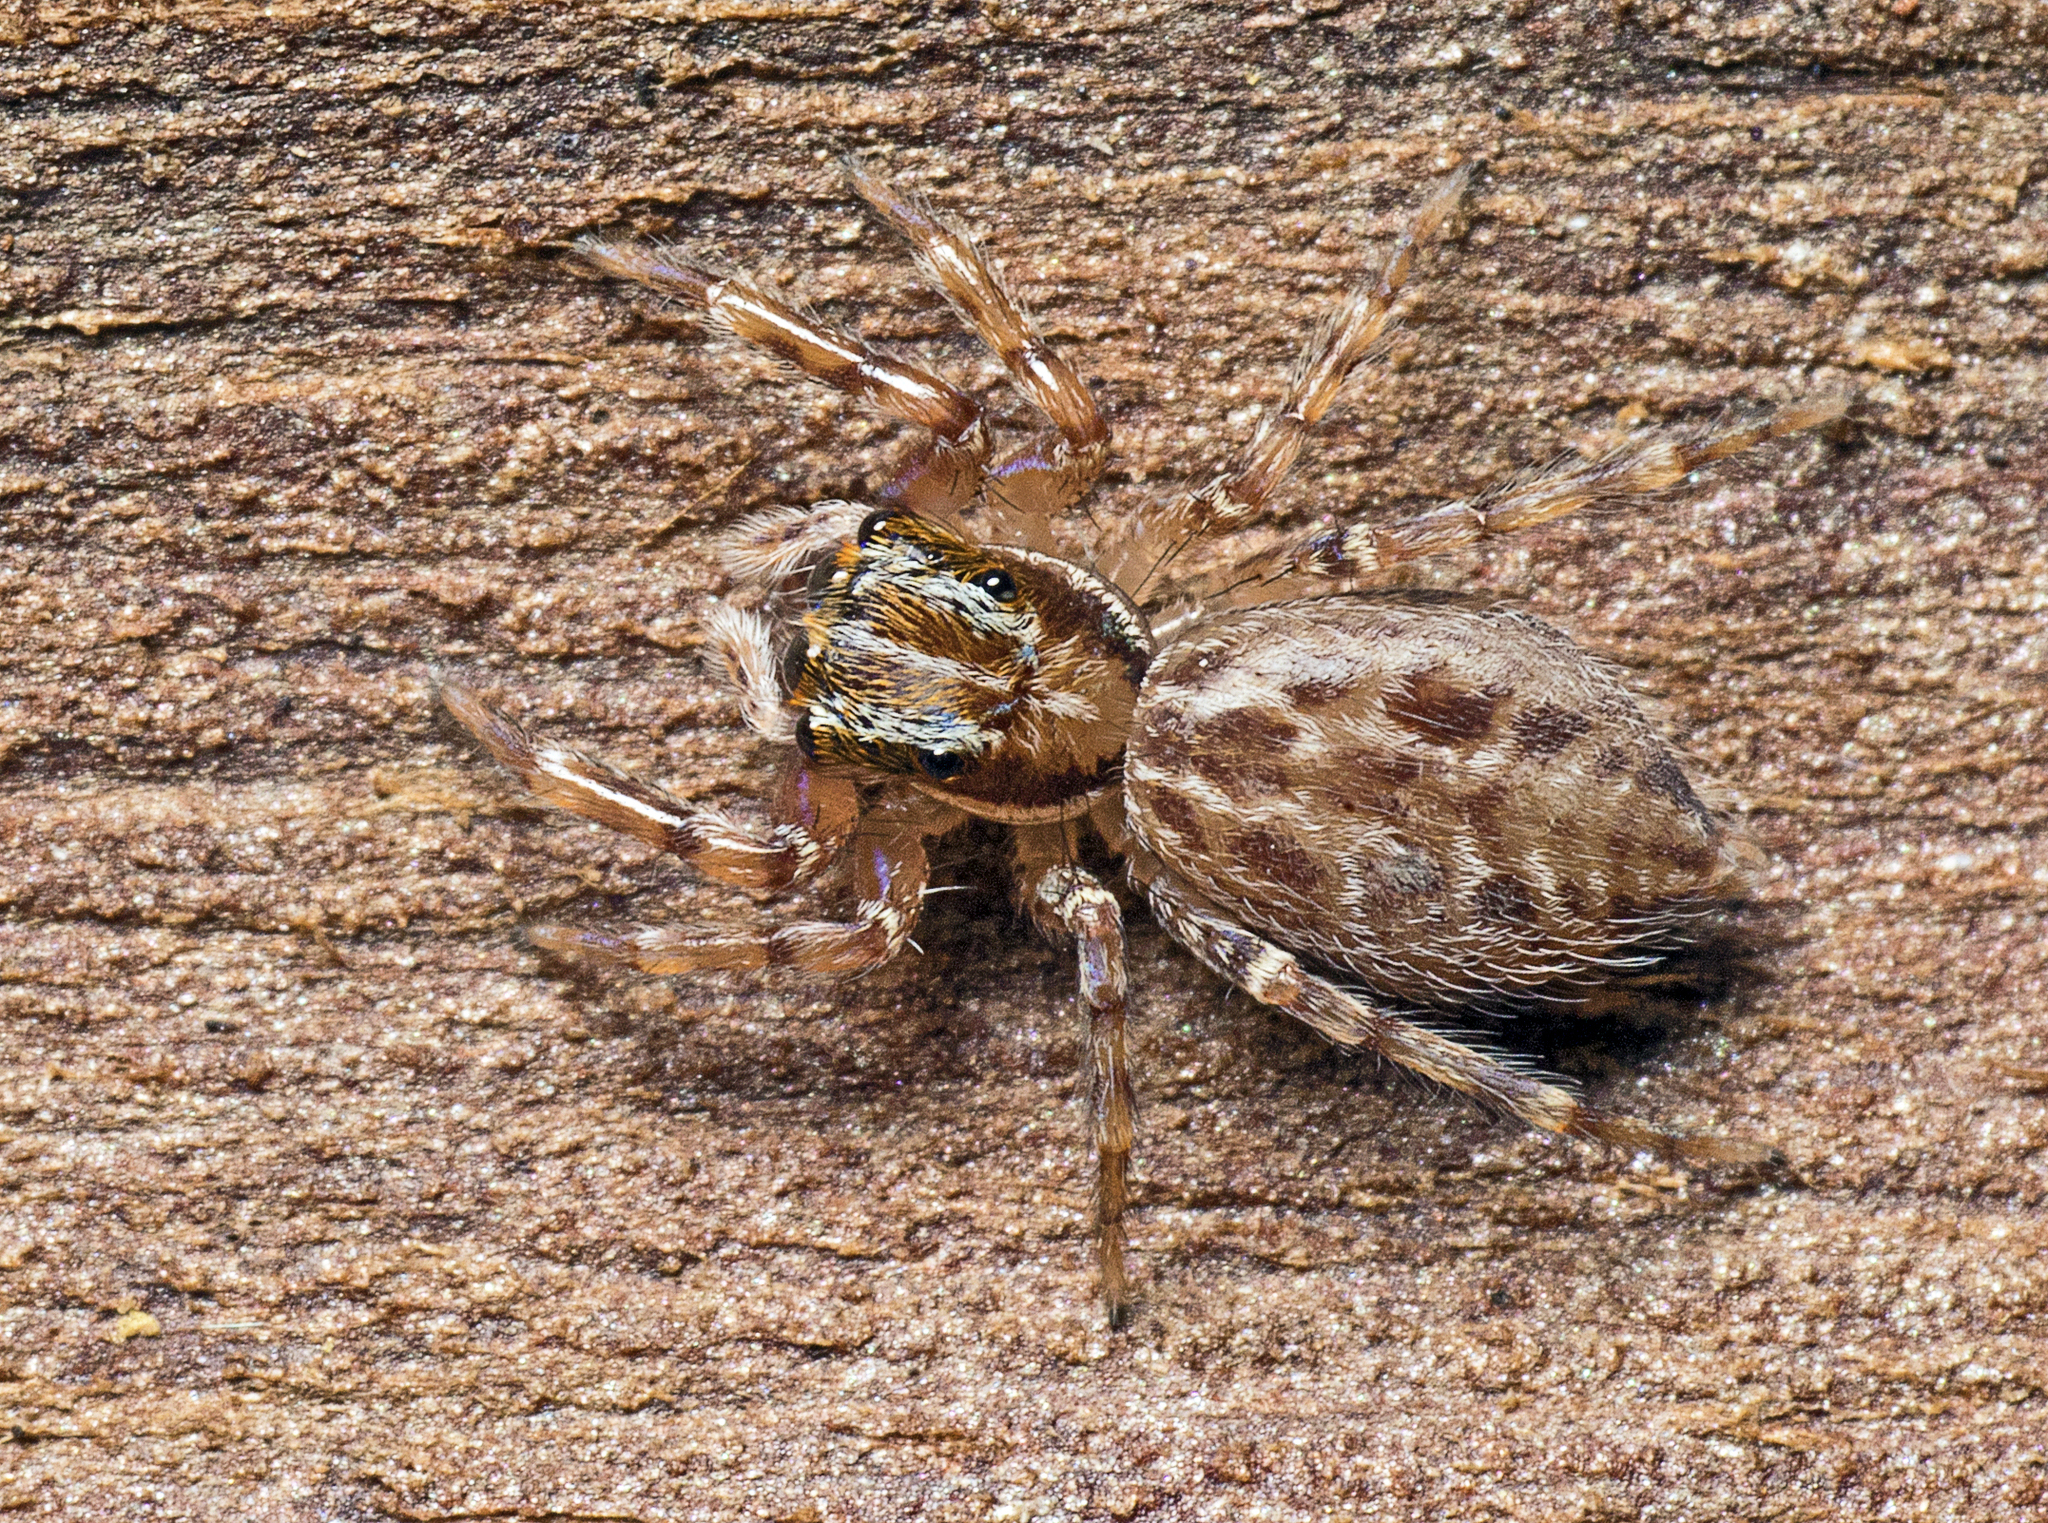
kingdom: Animalia
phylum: Arthropoda
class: Arachnida
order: Araneae
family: Salticidae
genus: Adoxotoma
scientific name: Adoxotoma nodosa
